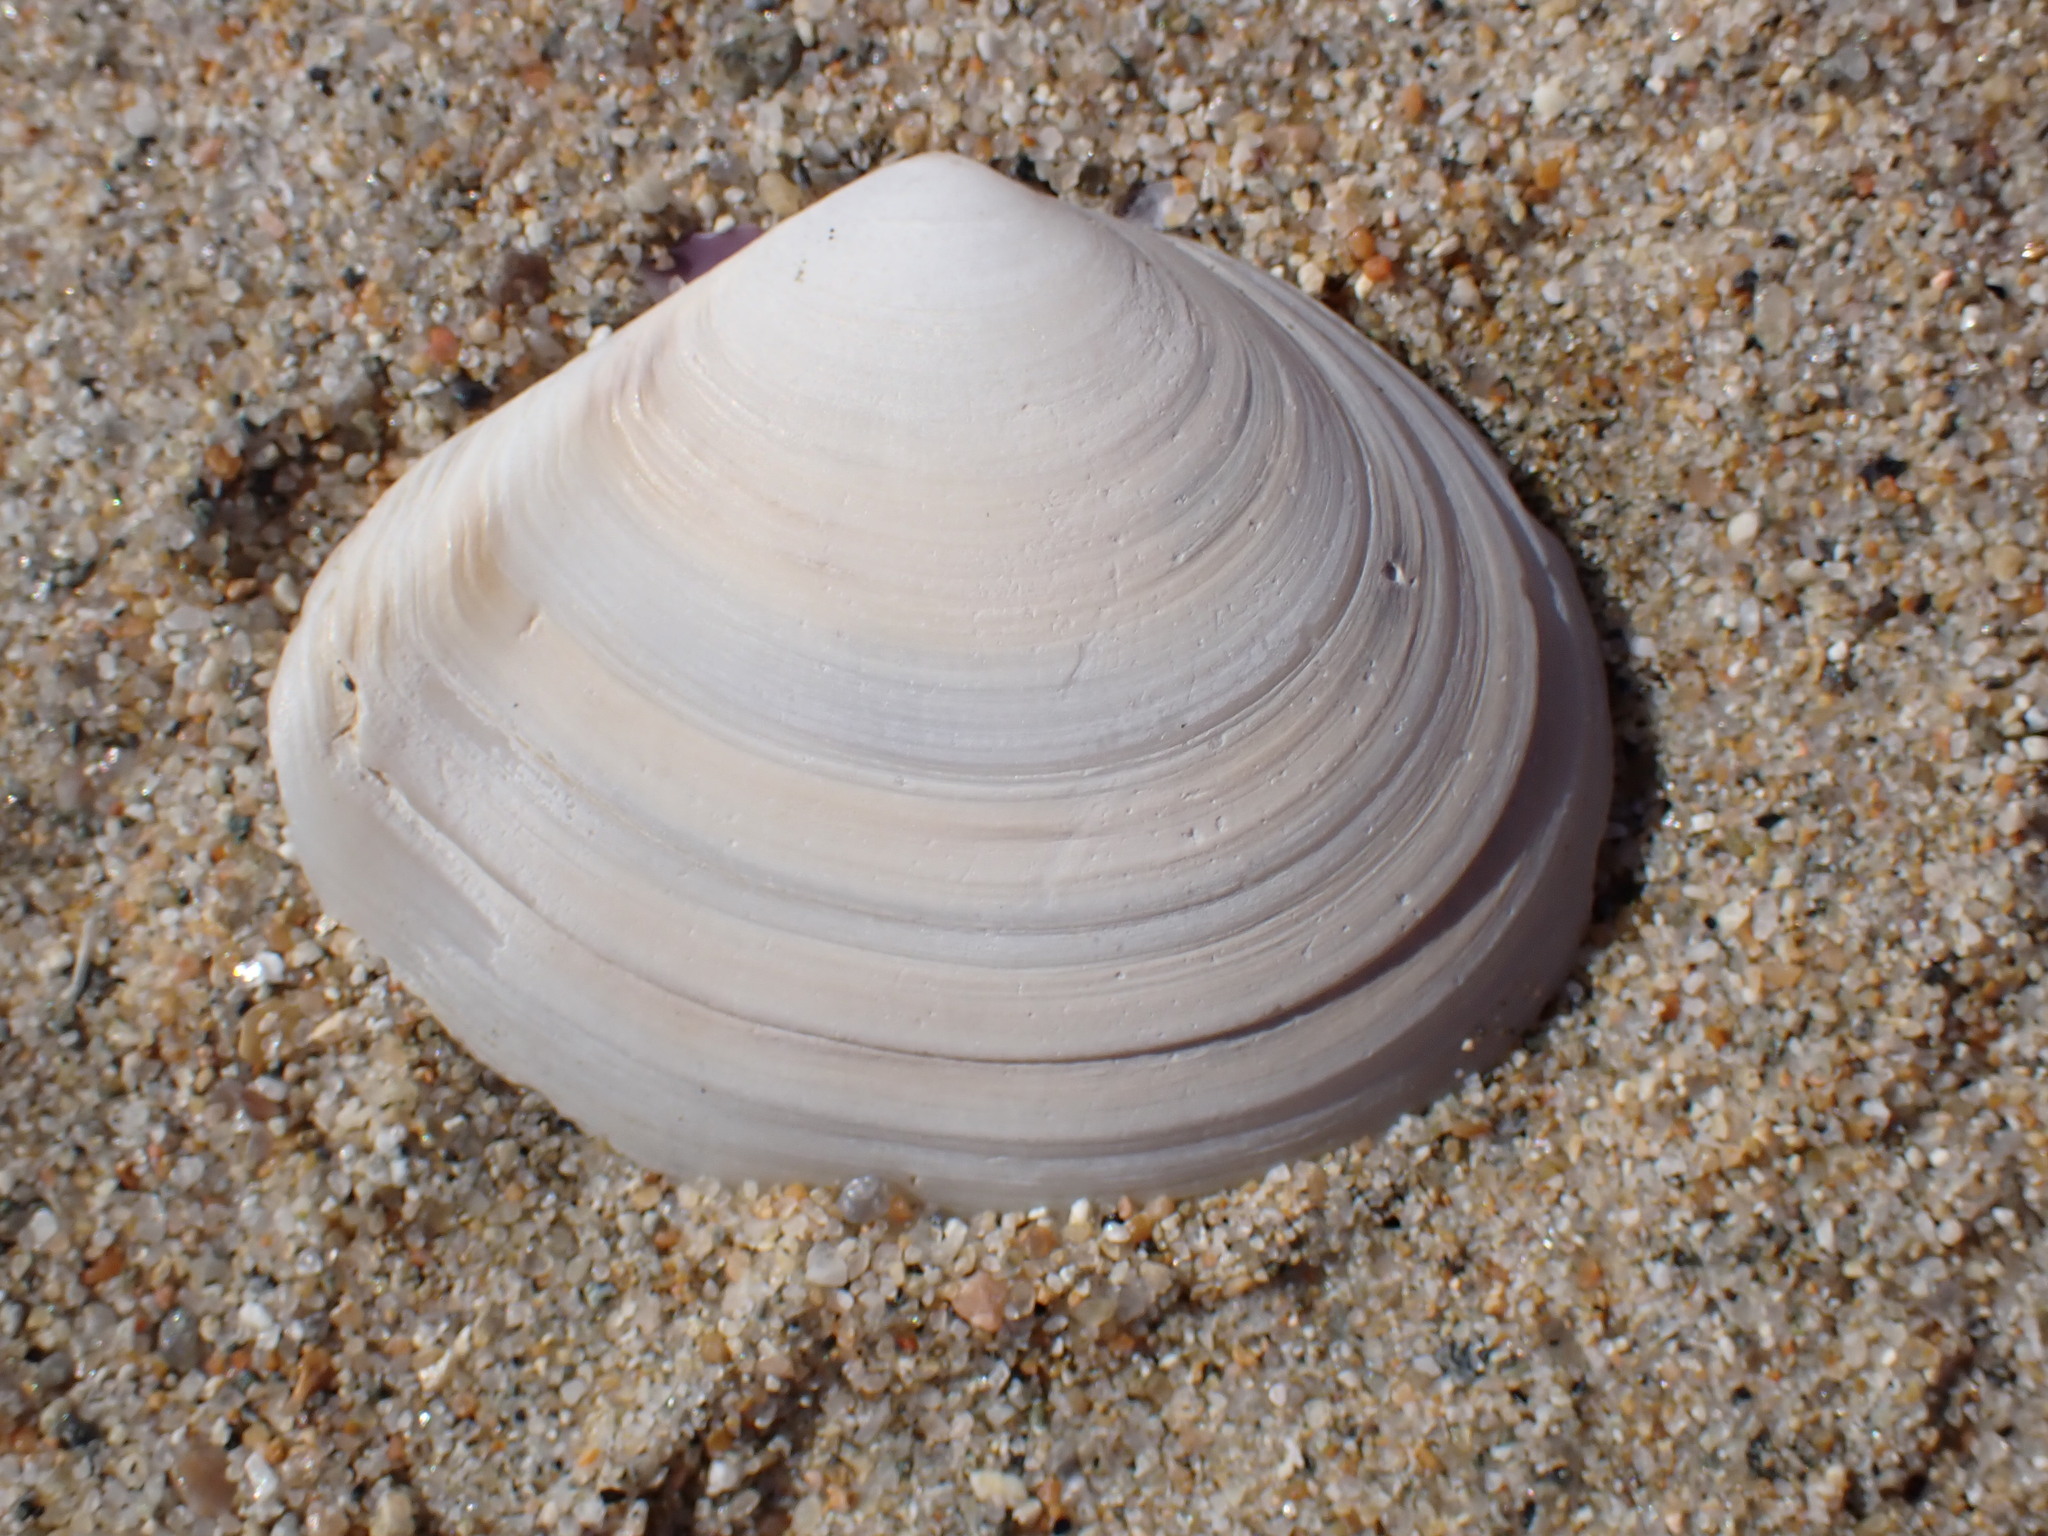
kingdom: Animalia
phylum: Mollusca
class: Bivalvia
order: Cardiida
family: Tellinidae
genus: Macoma
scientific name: Macoma nasuta
